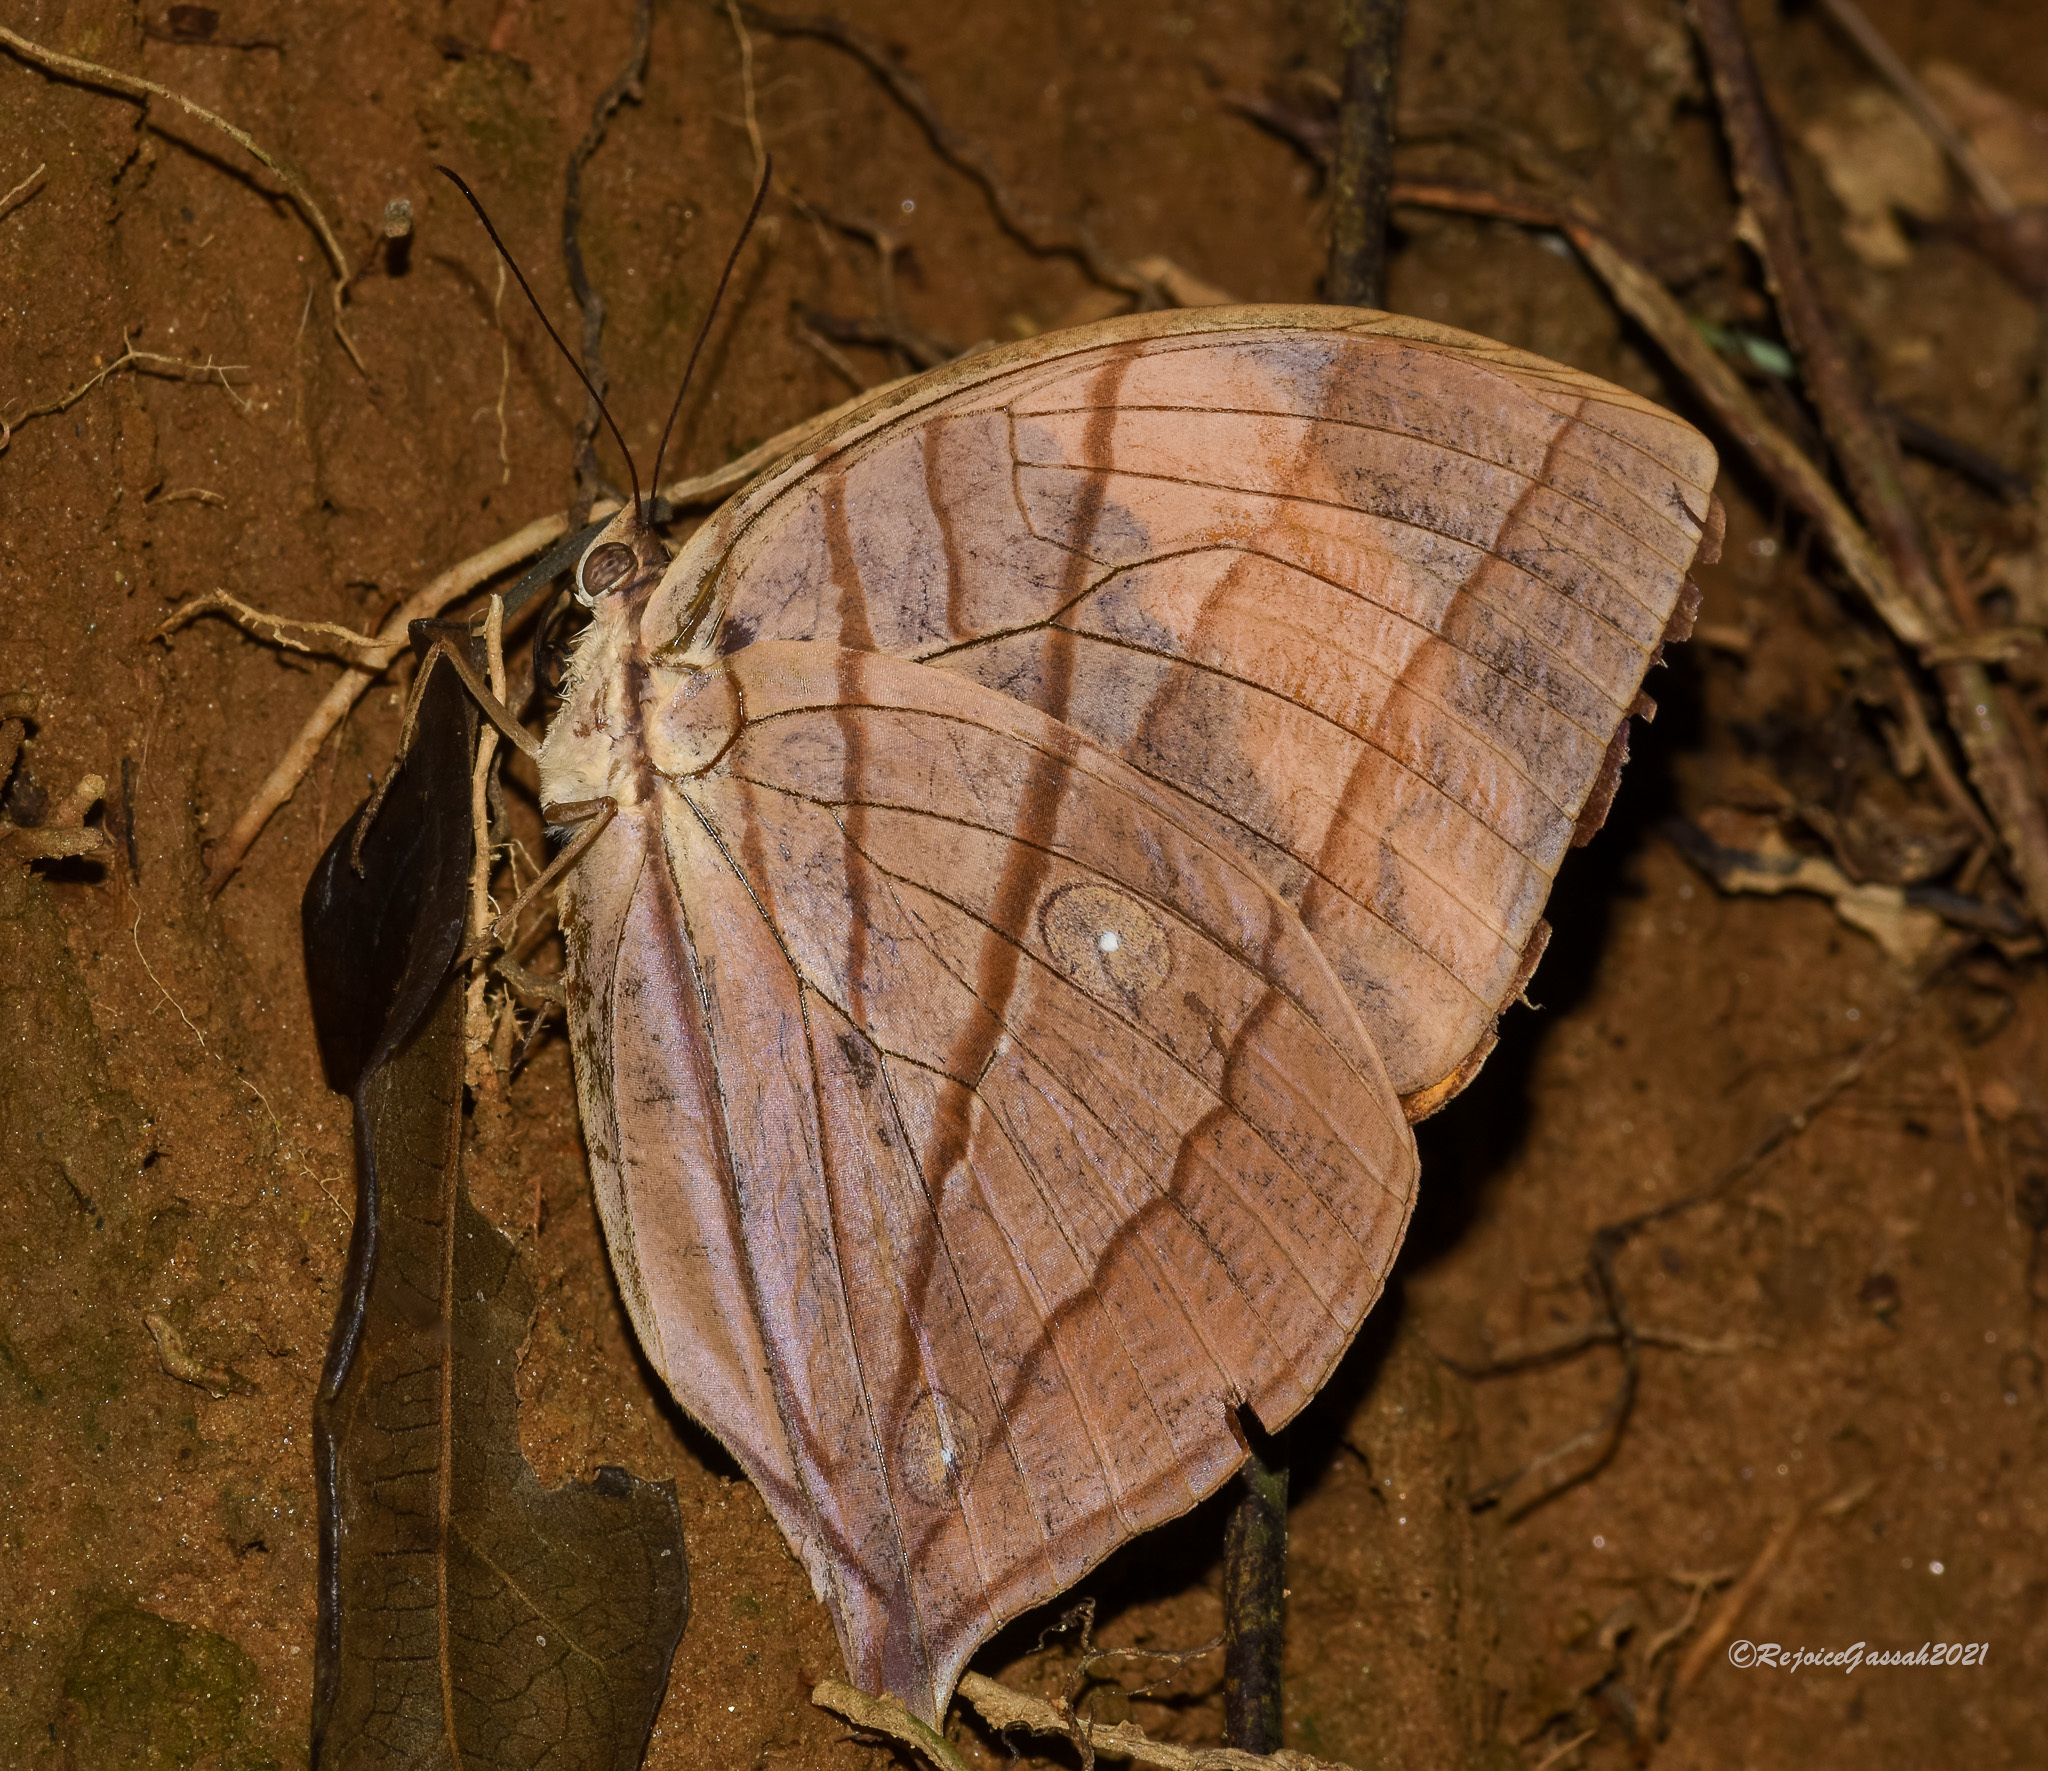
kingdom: Animalia
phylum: Arthropoda
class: Insecta
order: Lepidoptera
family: Nymphalidae
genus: Amathuxidia
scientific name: Amathuxidia amythaon
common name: Koh-i-noor
